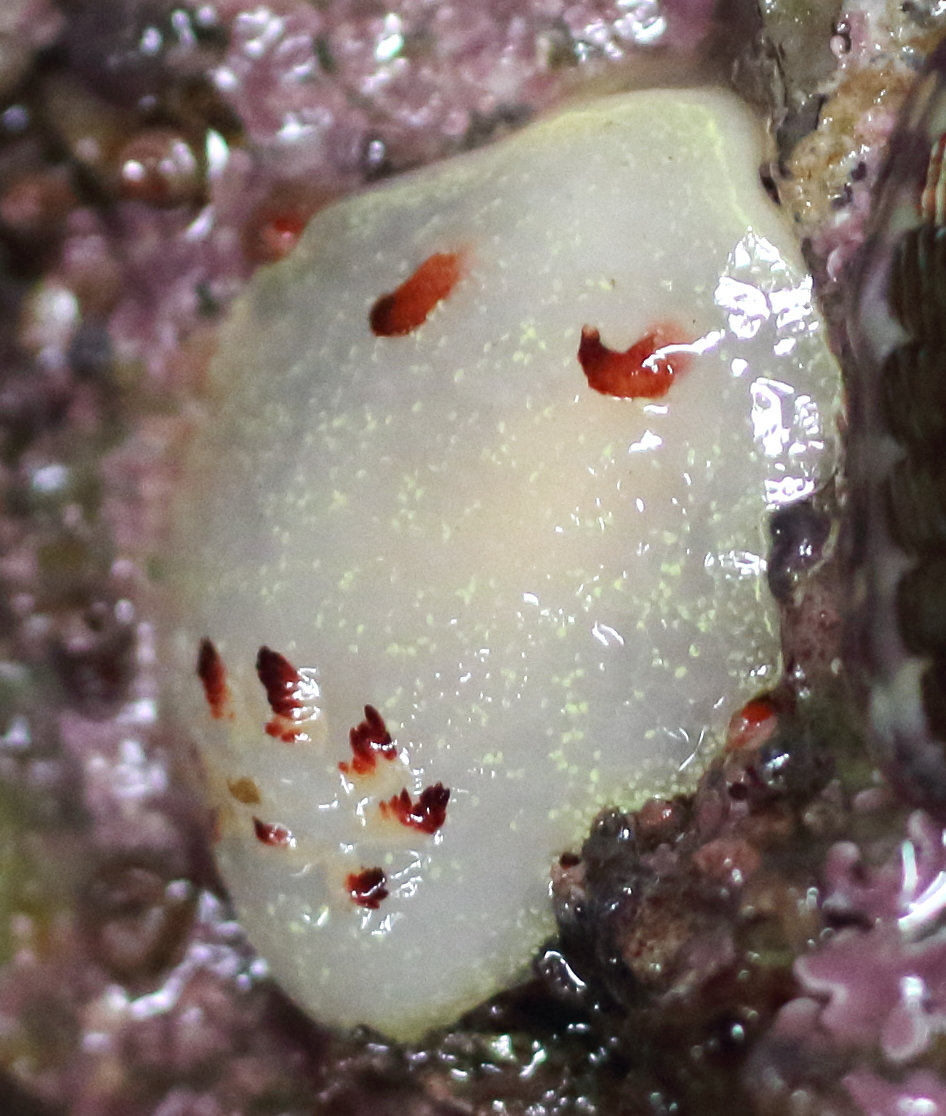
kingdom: Animalia
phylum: Mollusca
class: Gastropoda
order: Nudibranchia
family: Onchidorididae
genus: Acanthodoris
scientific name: Acanthodoris nanaimoensis
